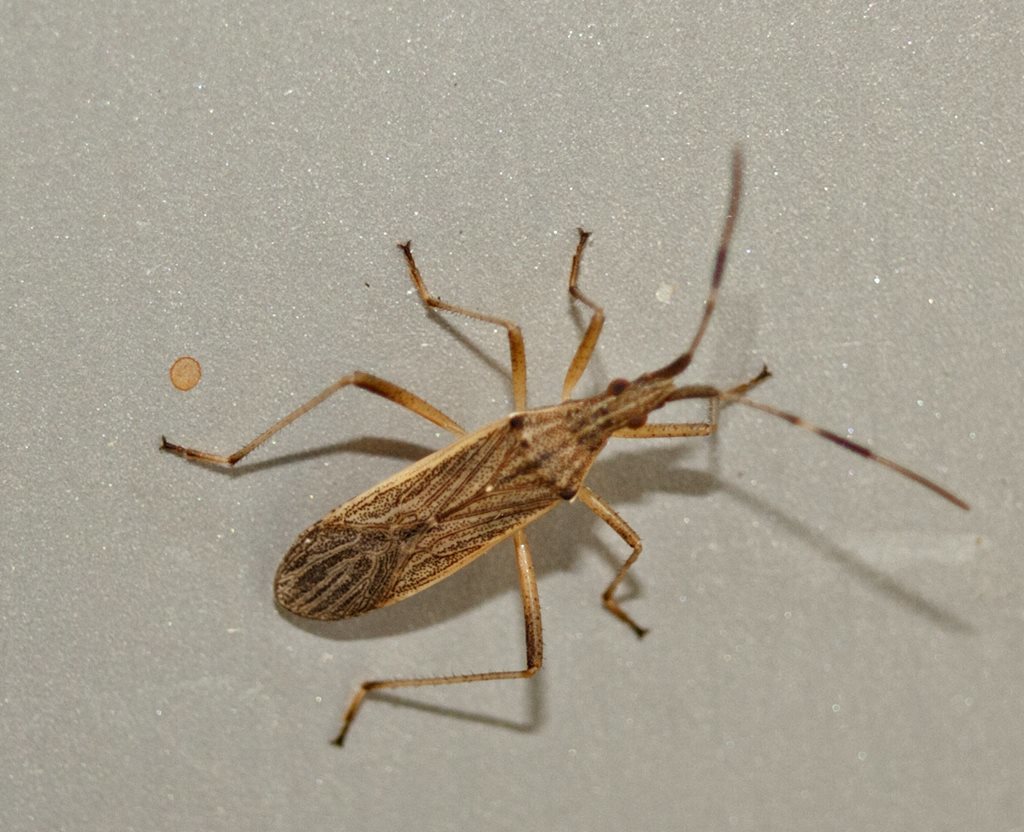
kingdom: Animalia
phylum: Arthropoda
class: Insecta
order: Hemiptera
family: Stenocephalidae
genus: Dicranocephalus
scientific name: Dicranocephalus aroonanus
